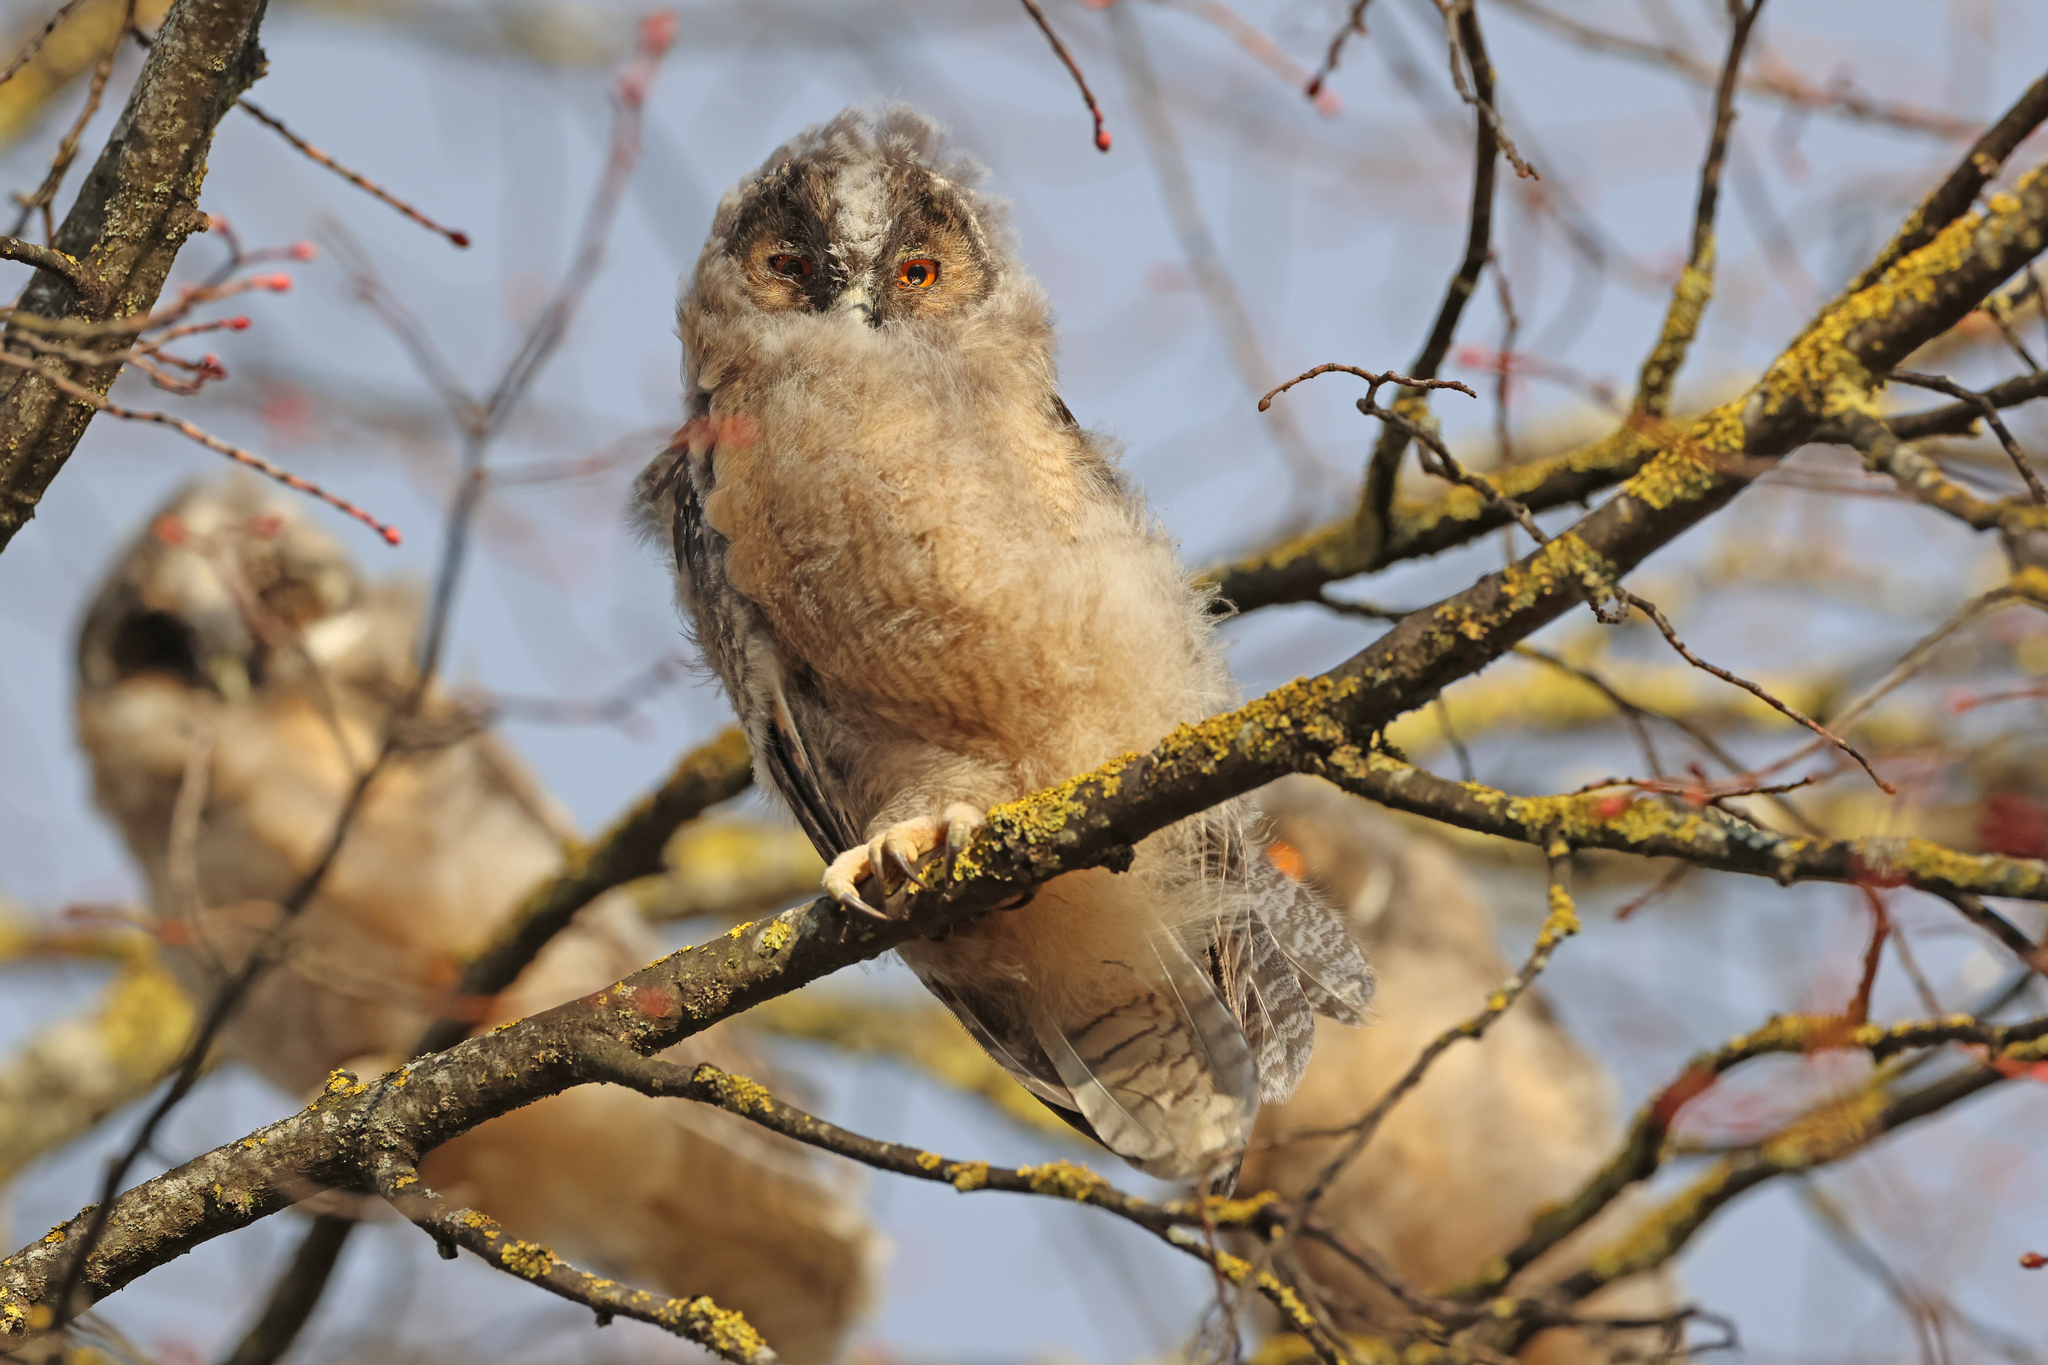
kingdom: Animalia
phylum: Chordata
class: Aves
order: Strigiformes
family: Strigidae
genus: Asio
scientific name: Asio otus
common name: Long-eared owl
